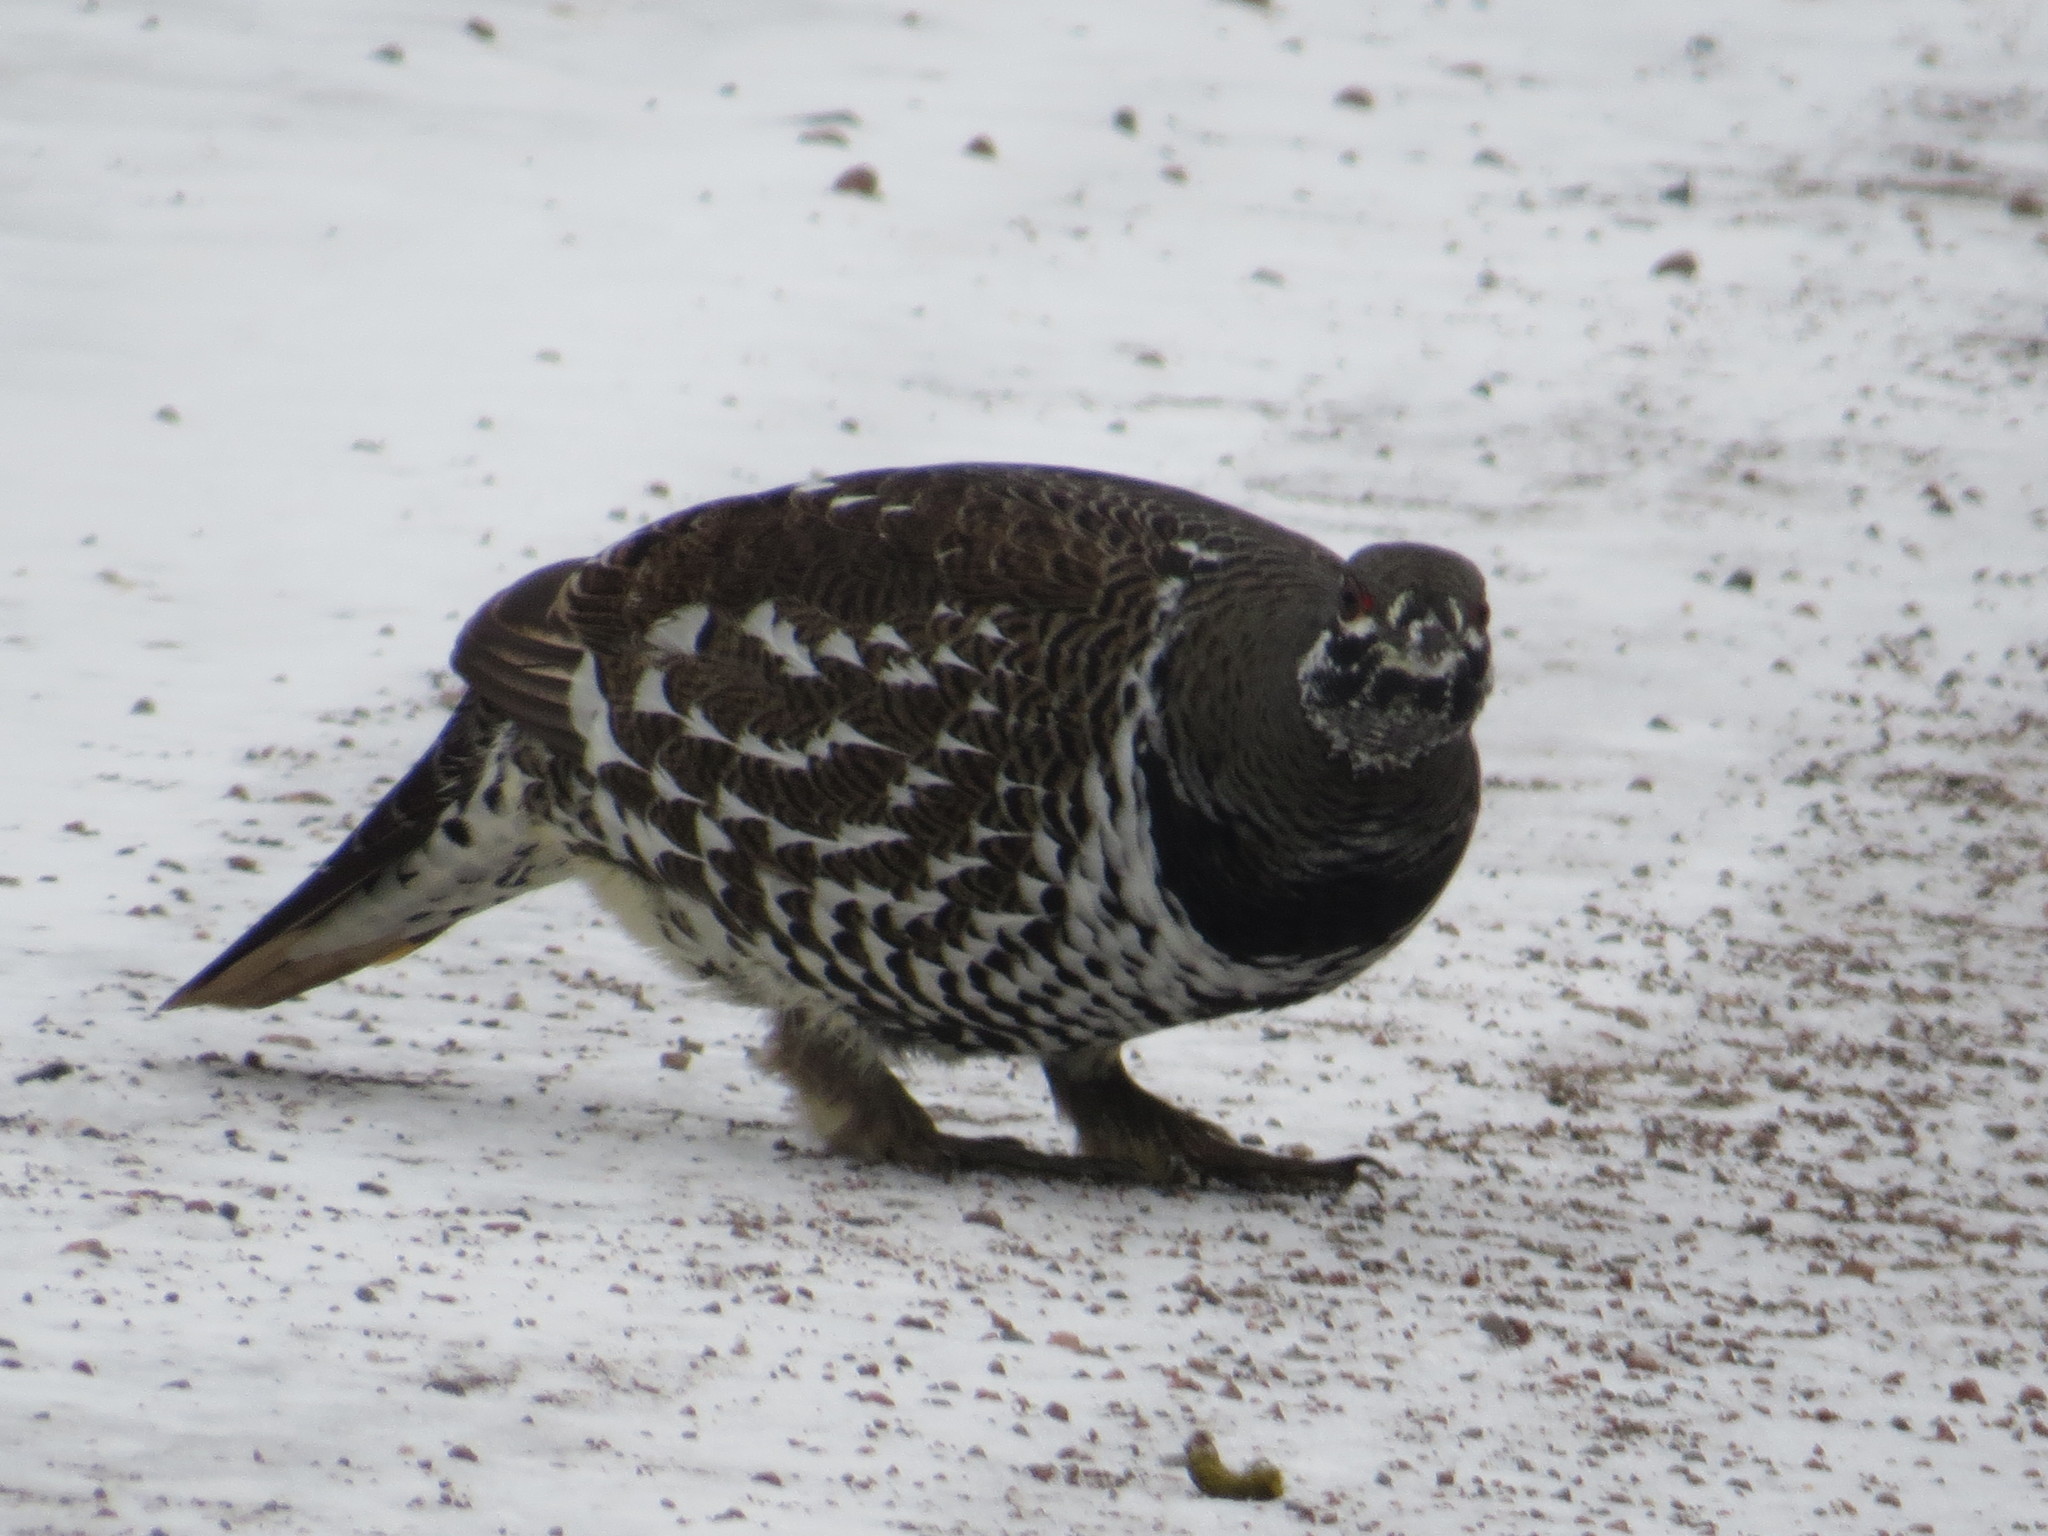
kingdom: Animalia
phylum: Chordata
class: Aves
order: Galliformes
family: Phasianidae
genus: Canachites
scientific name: Canachites canadensis
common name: Spruce grouse
